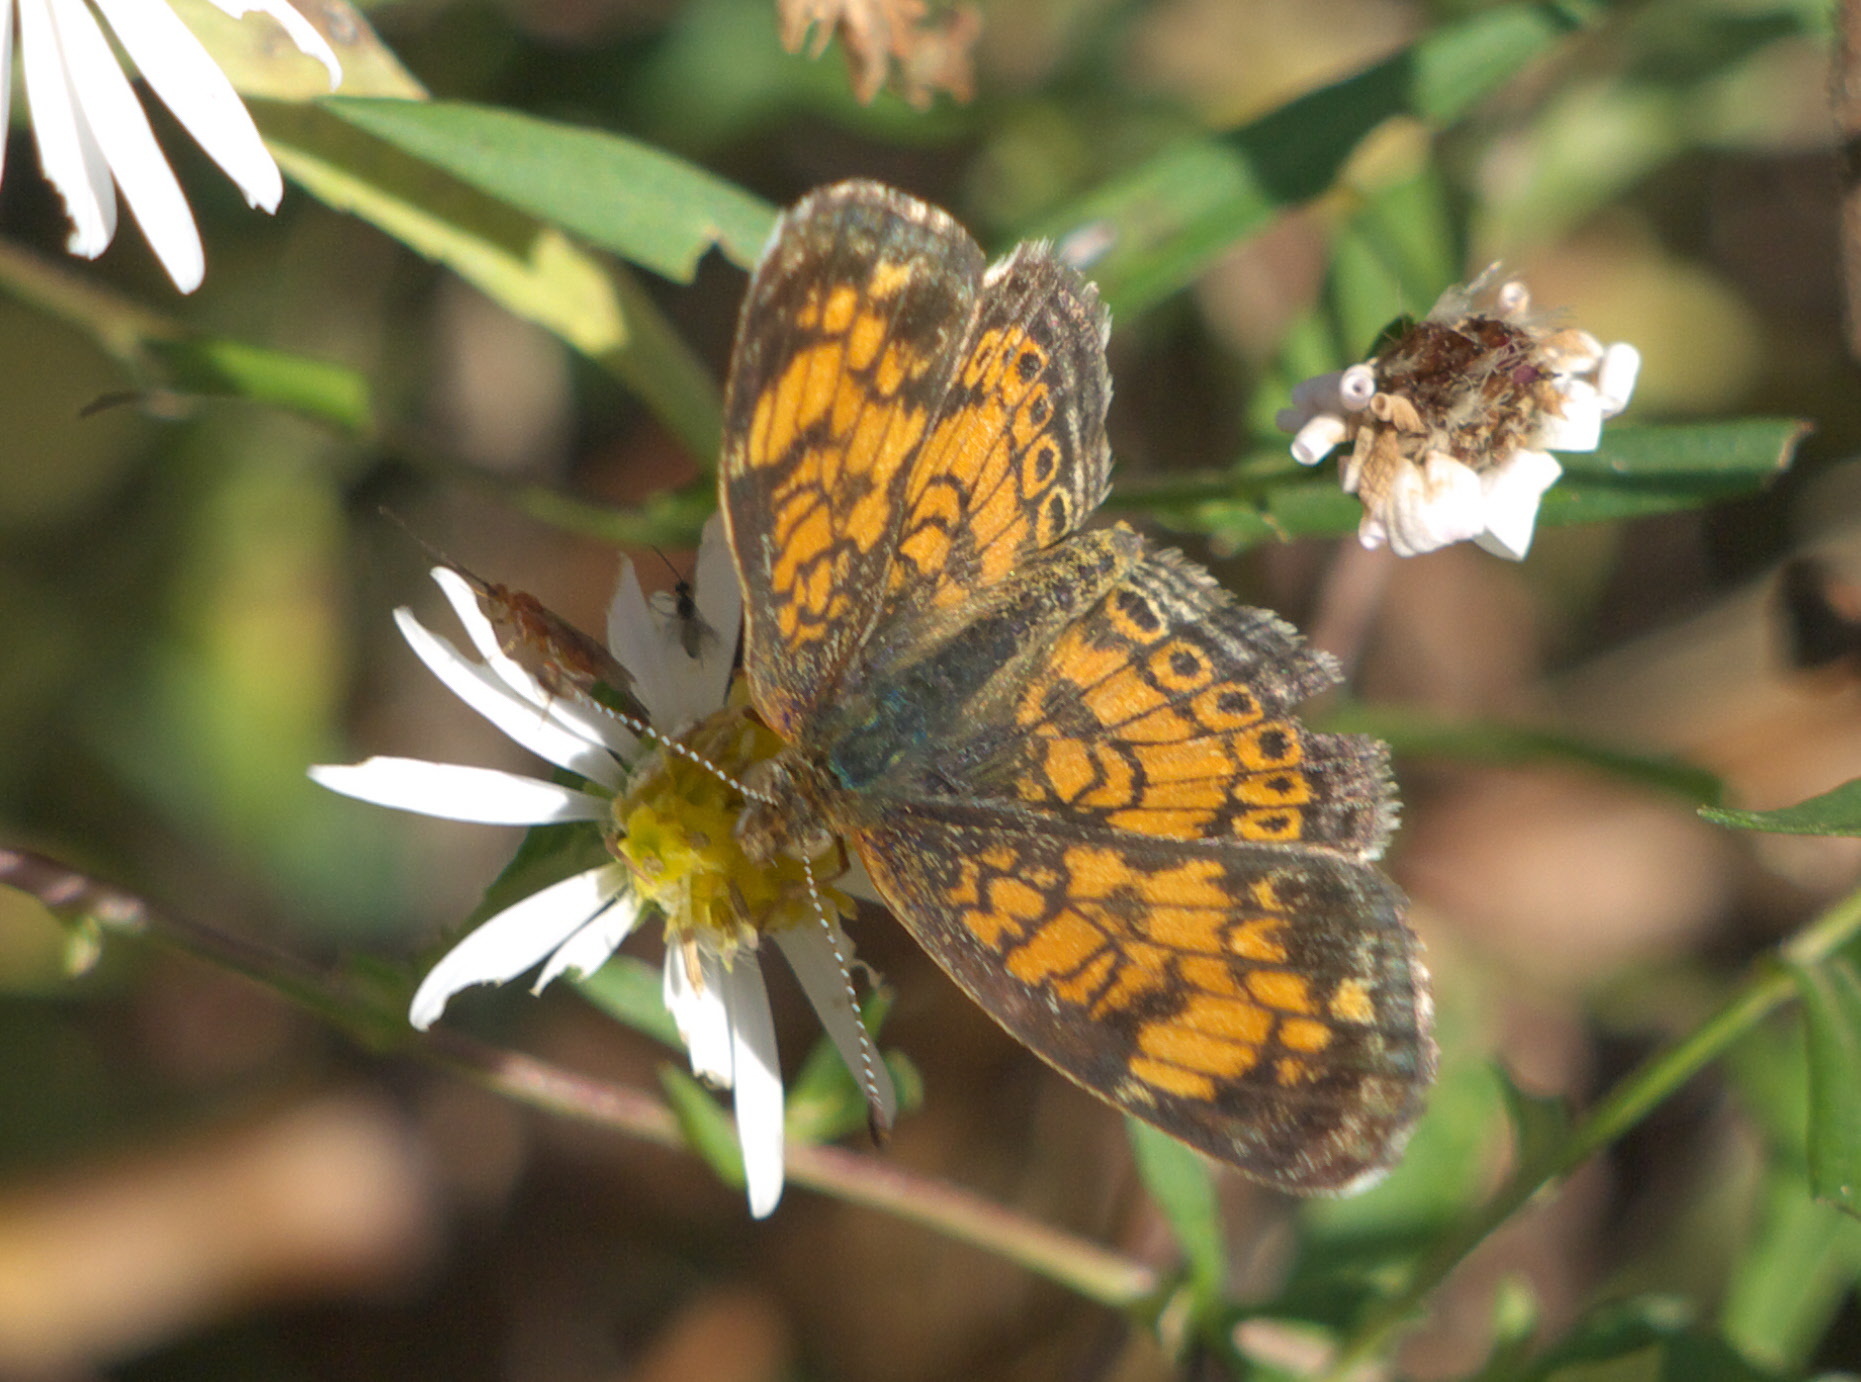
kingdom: Animalia
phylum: Arthropoda
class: Insecta
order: Lepidoptera
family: Nymphalidae
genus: Phyciodes
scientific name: Phyciodes tharos
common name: Pearl crescent
